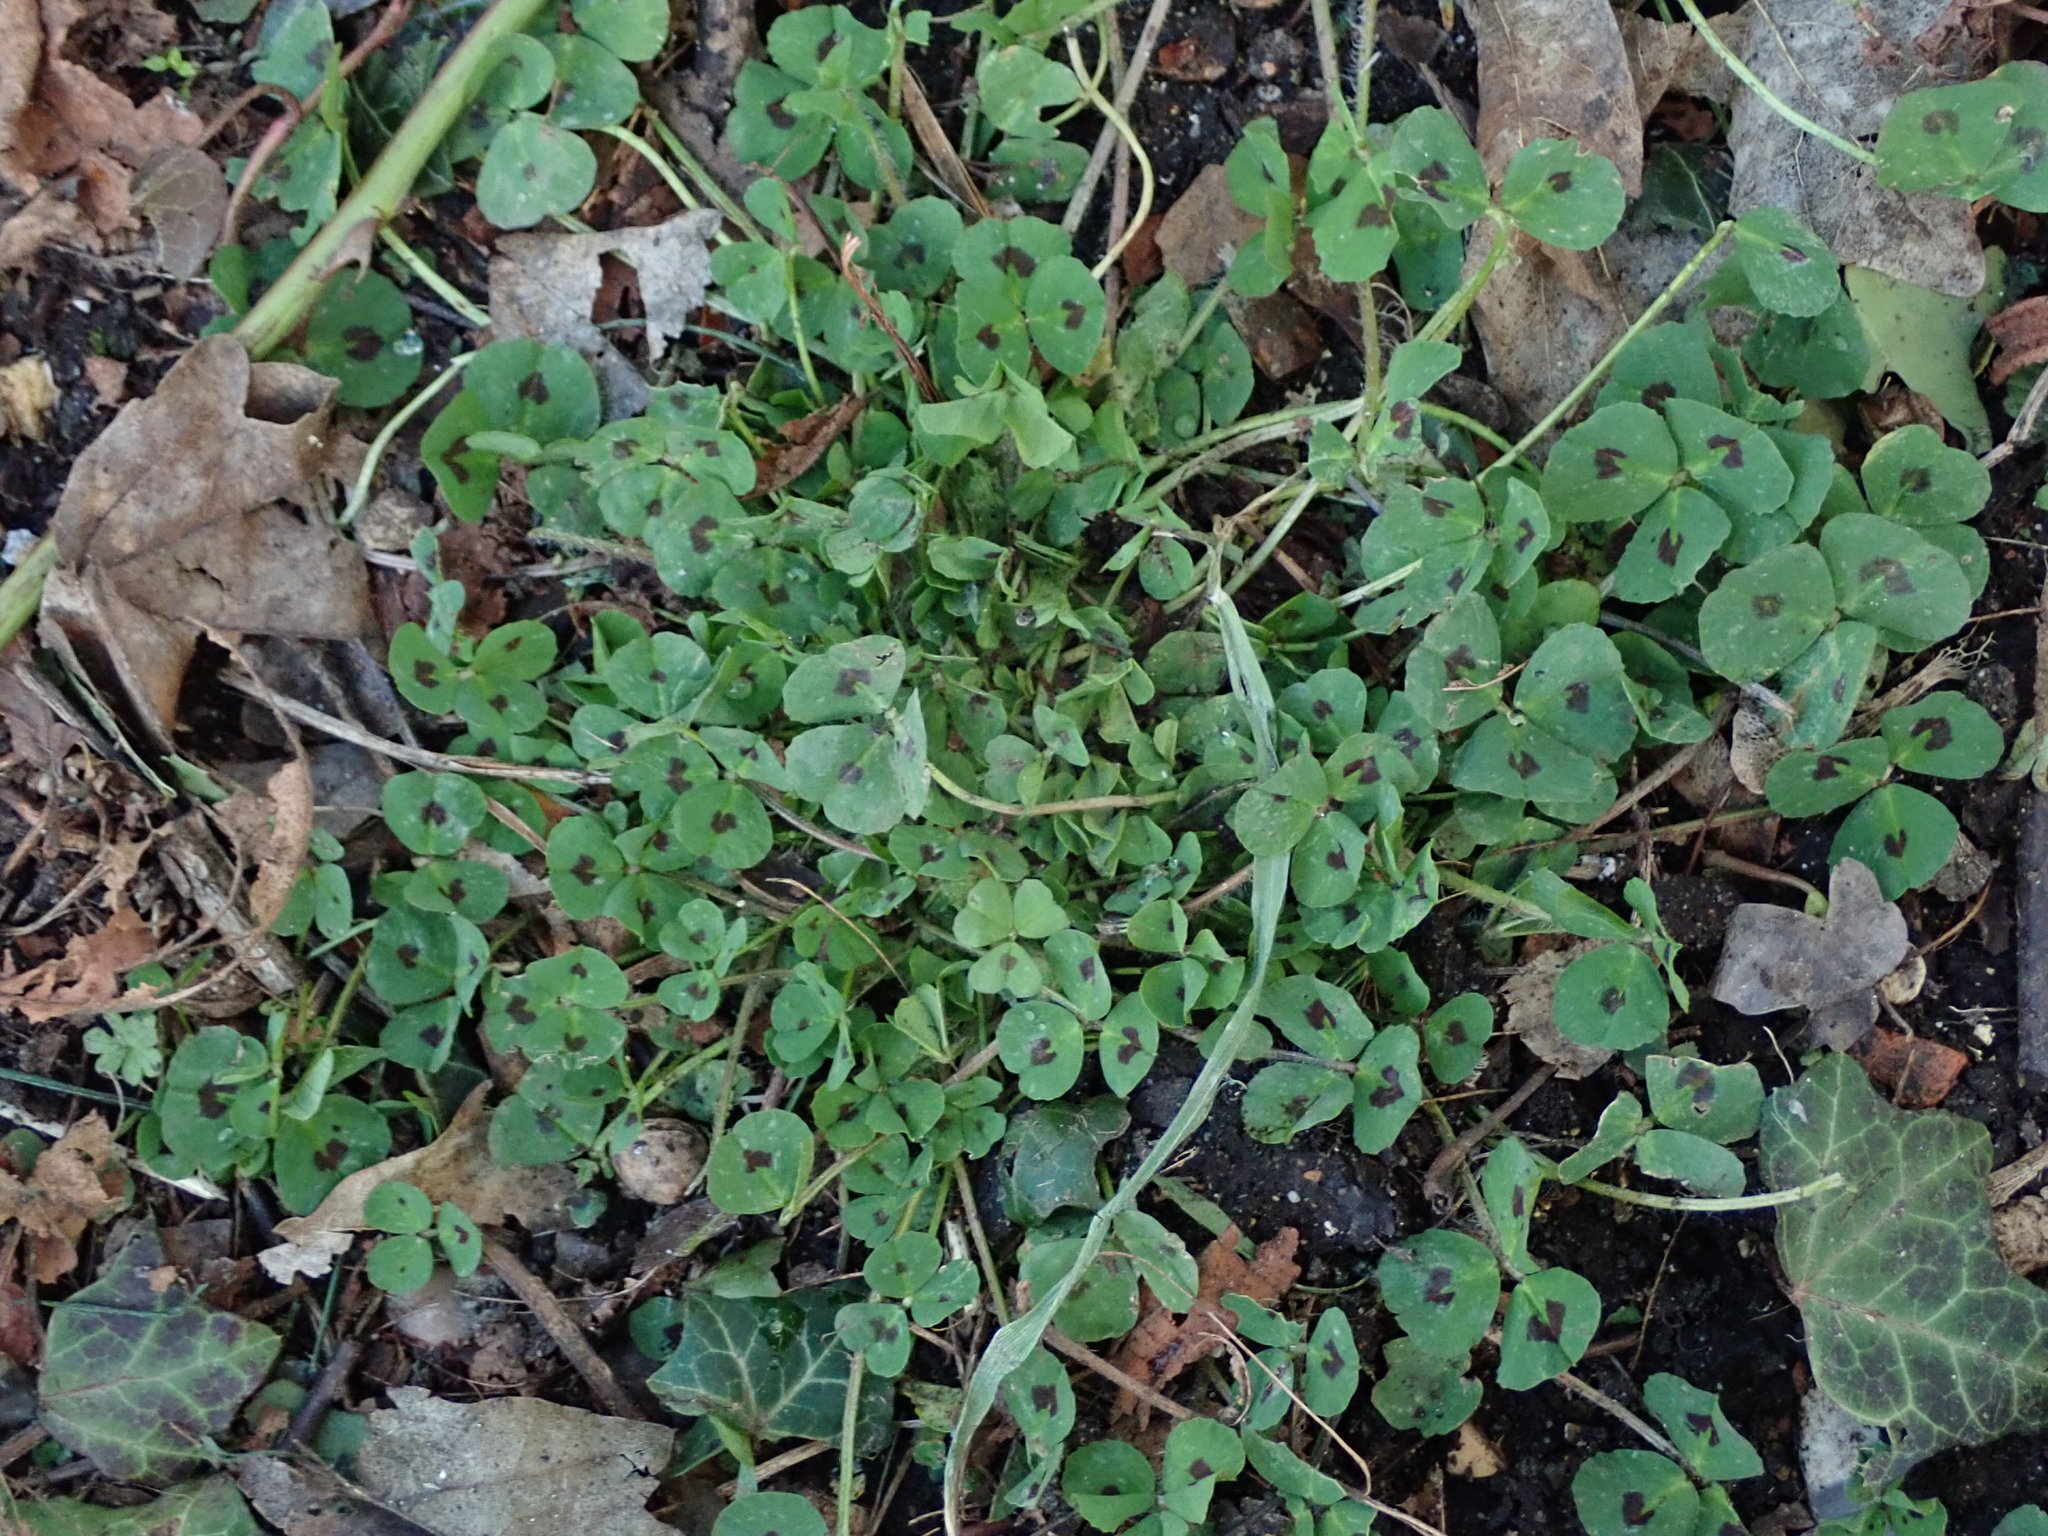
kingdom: Plantae
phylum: Tracheophyta
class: Magnoliopsida
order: Fabales
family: Fabaceae
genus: Medicago
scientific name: Medicago arabica
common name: Spotted medick
